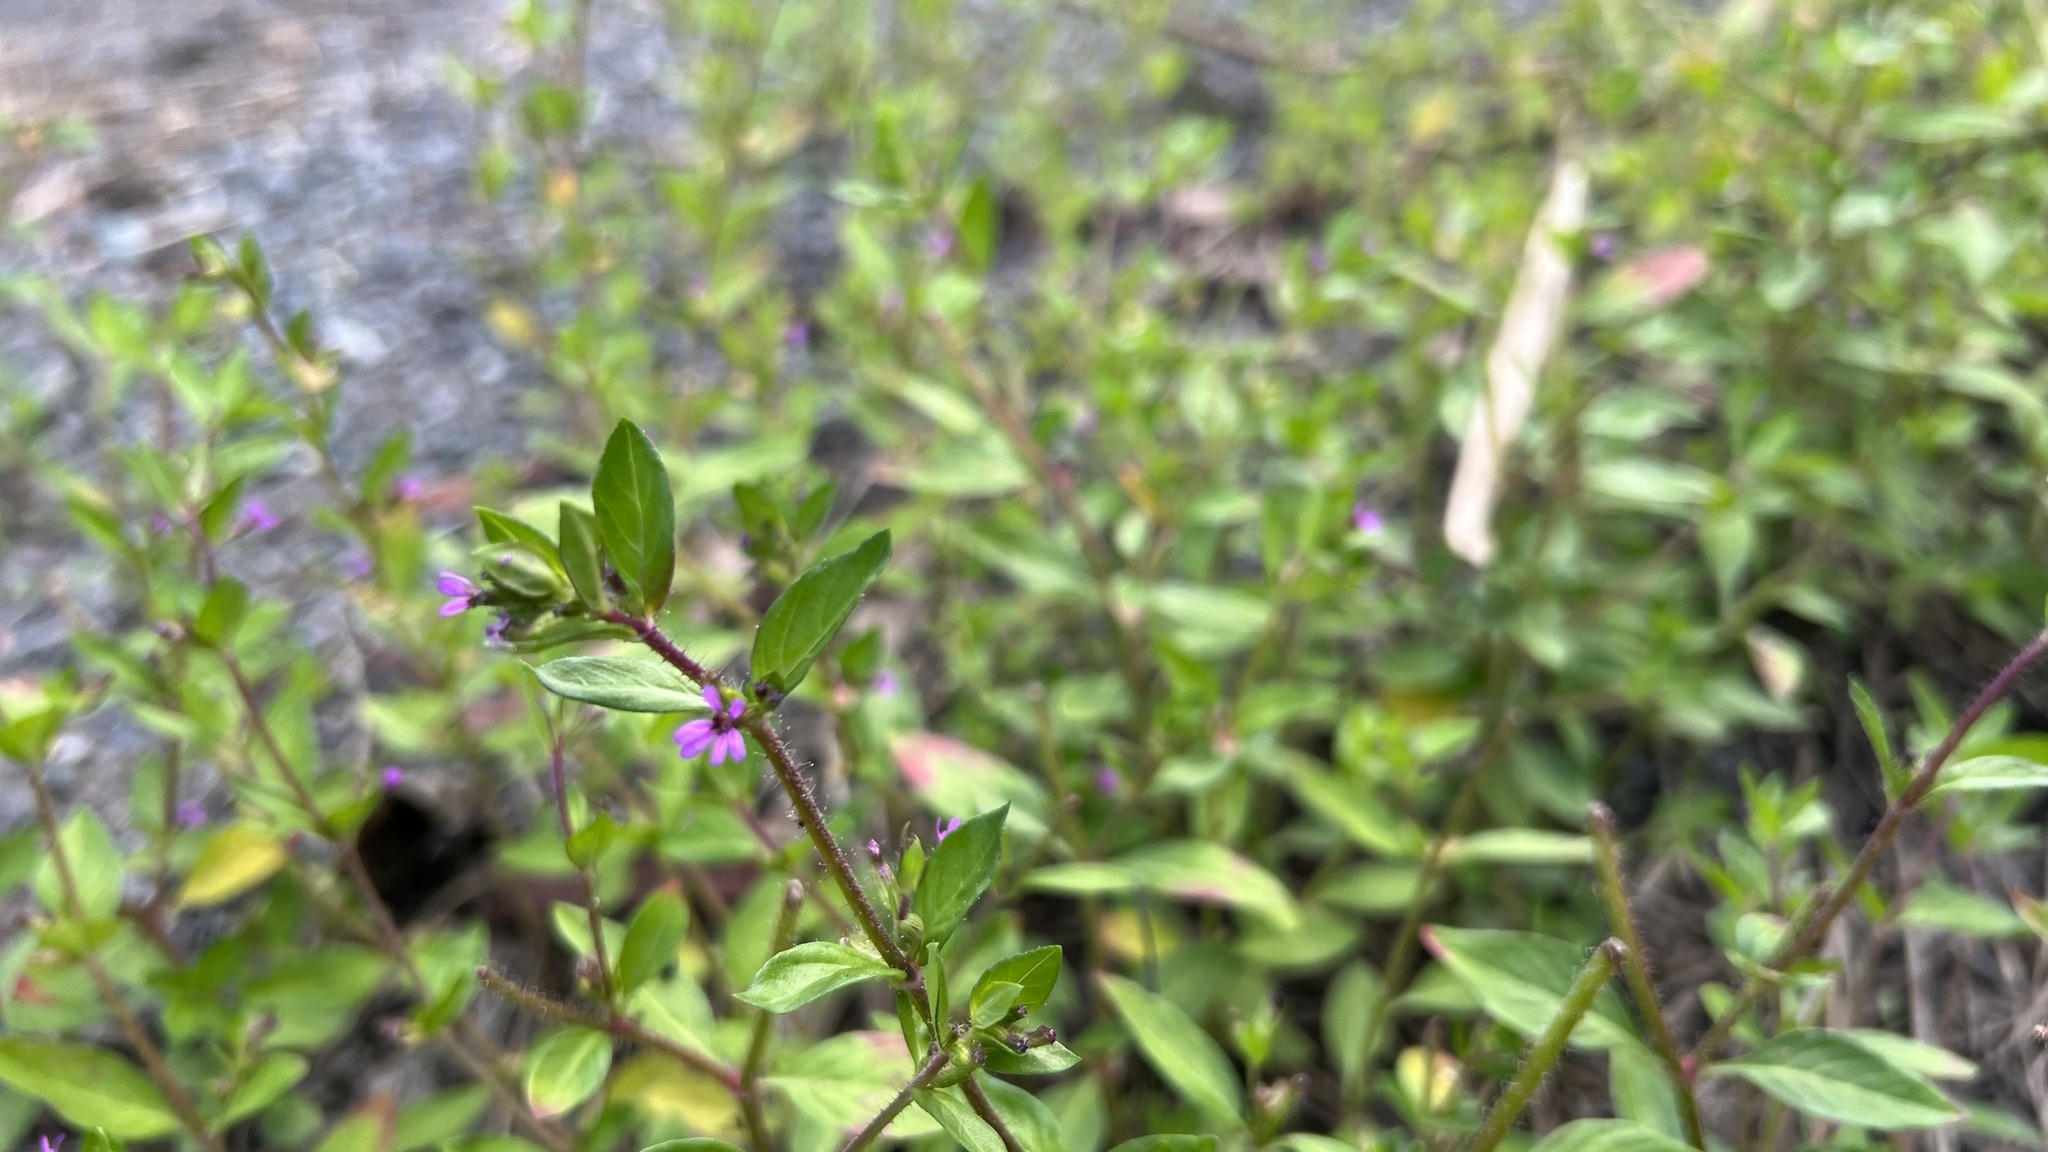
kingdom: Plantae
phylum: Tracheophyta
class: Magnoliopsida
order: Myrtales
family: Lythraceae
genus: Cuphea
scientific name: Cuphea carthagenensis
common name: Colombian waxweed
